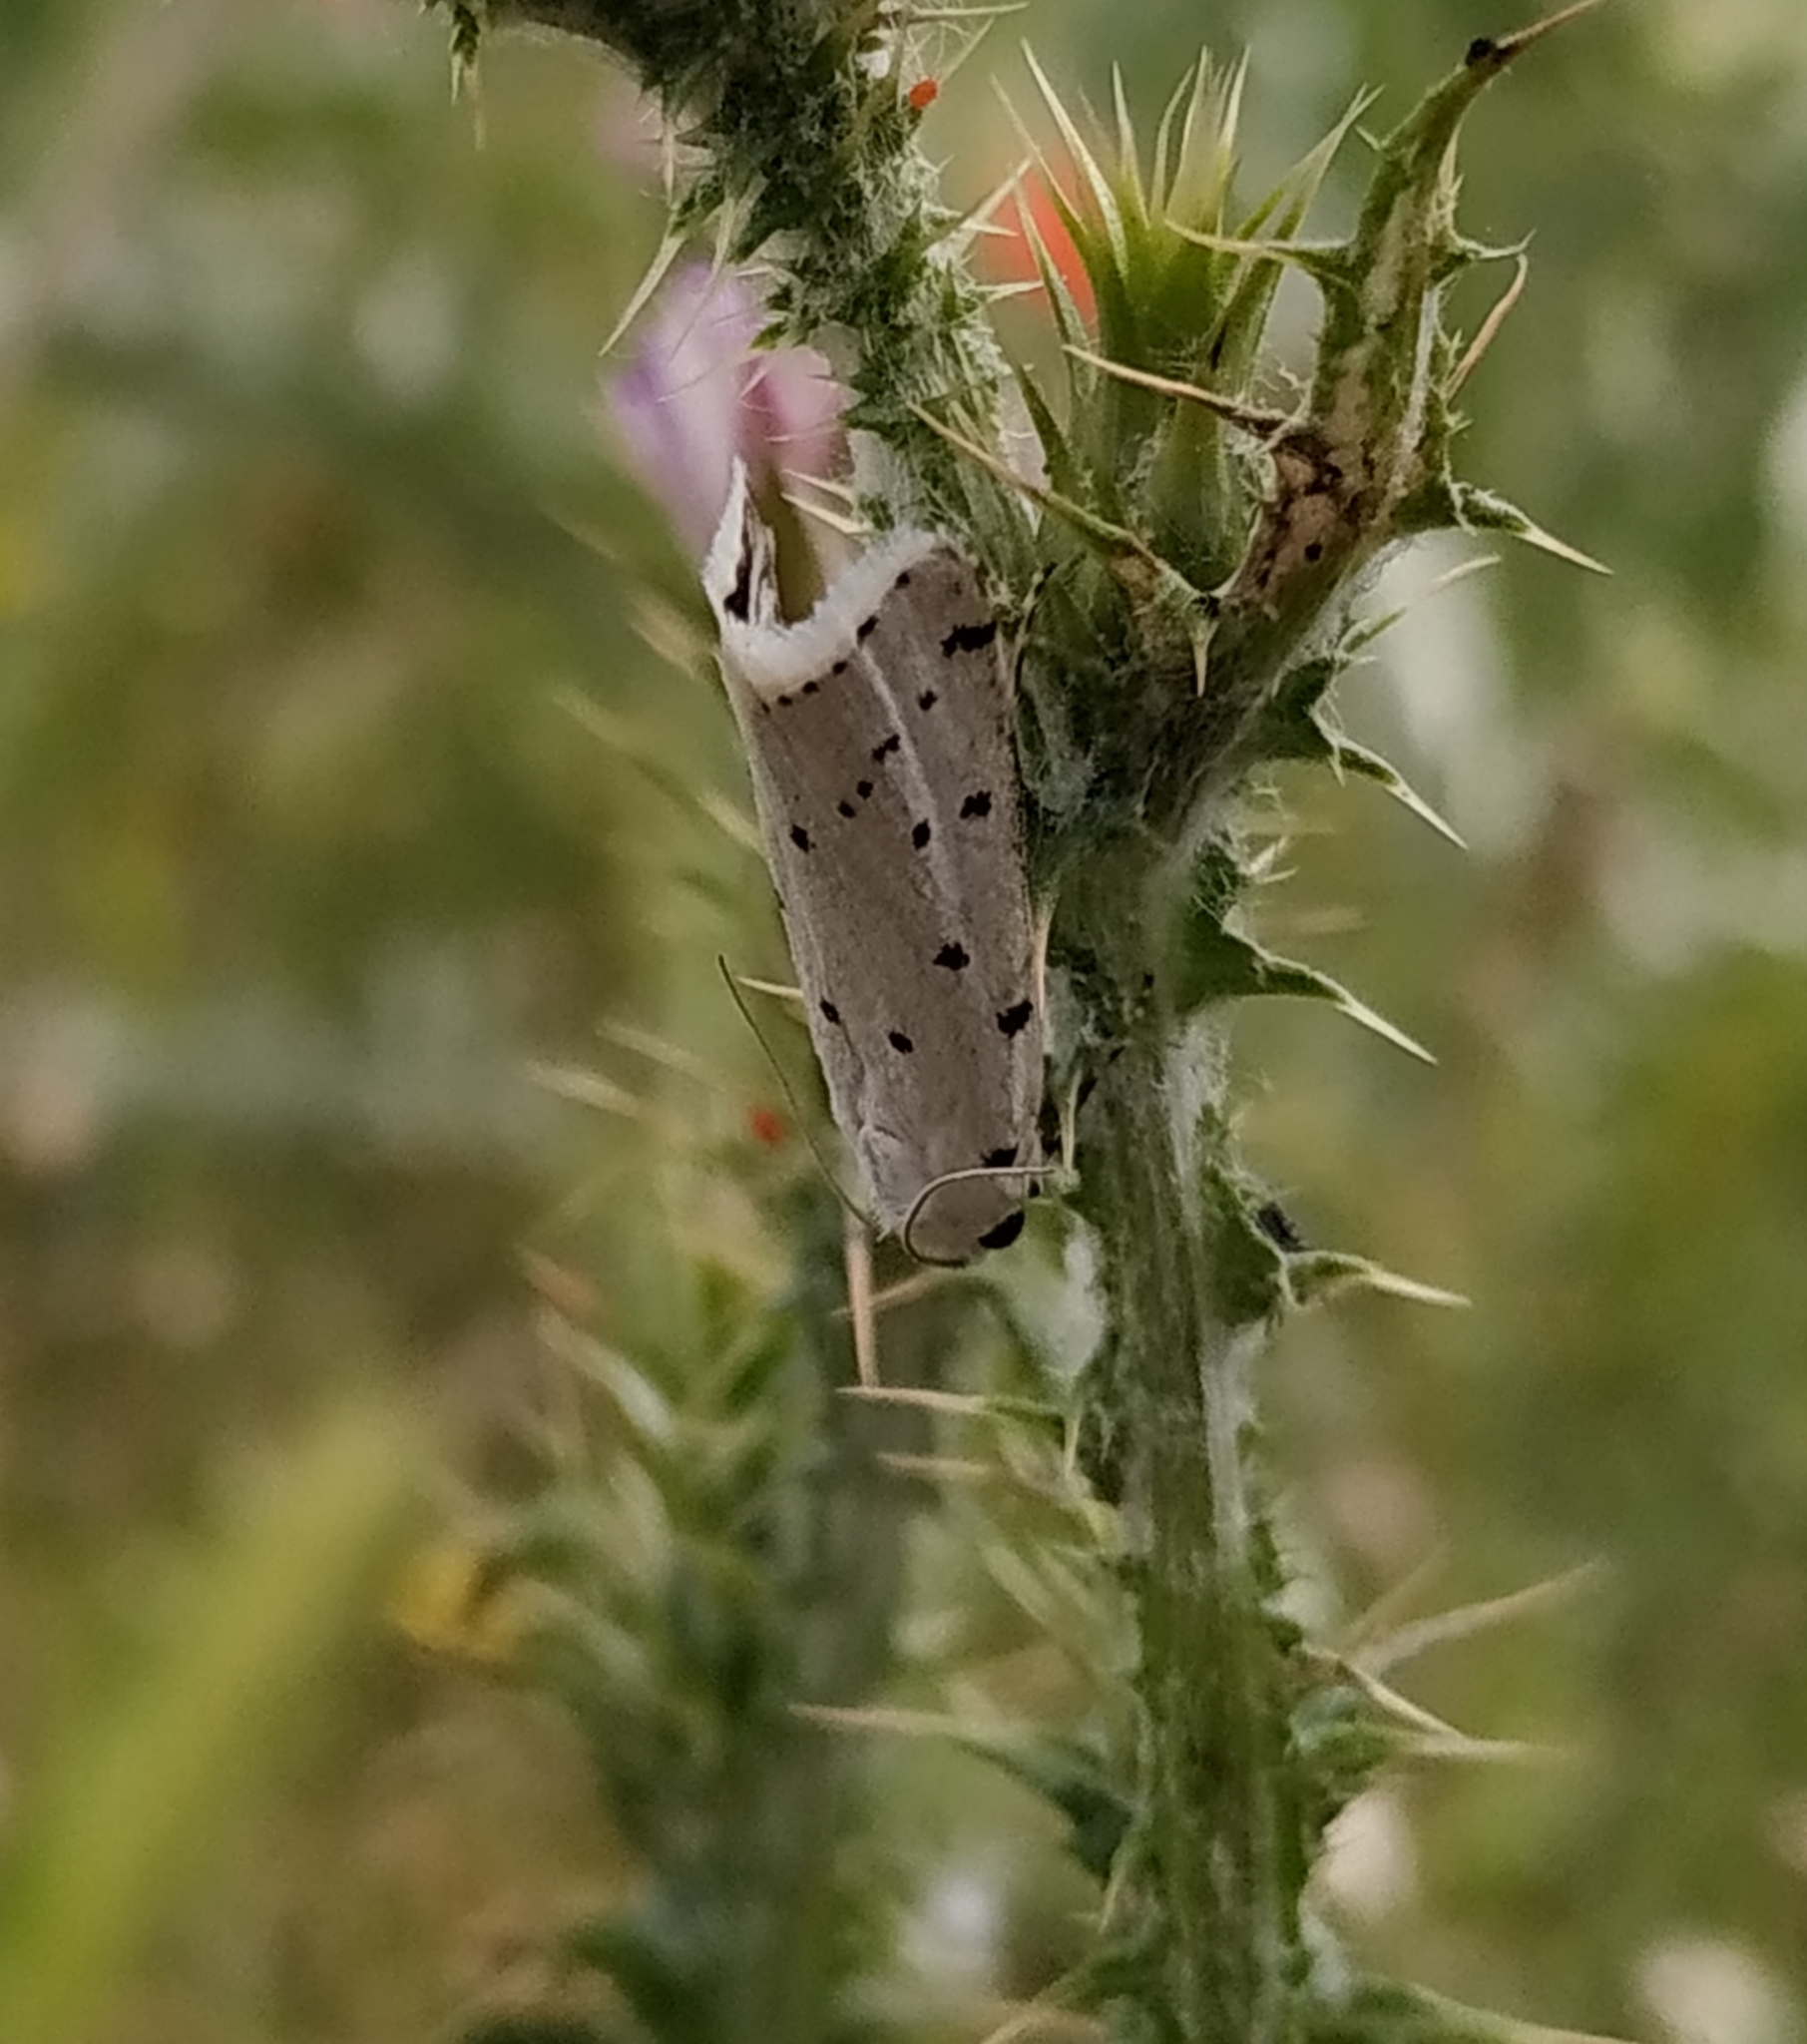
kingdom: Animalia
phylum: Arthropoda
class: Insecta
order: Lepidoptera
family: Pyralidae
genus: Myelois
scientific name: Myelois circumvoluta
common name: Thistle ermine
